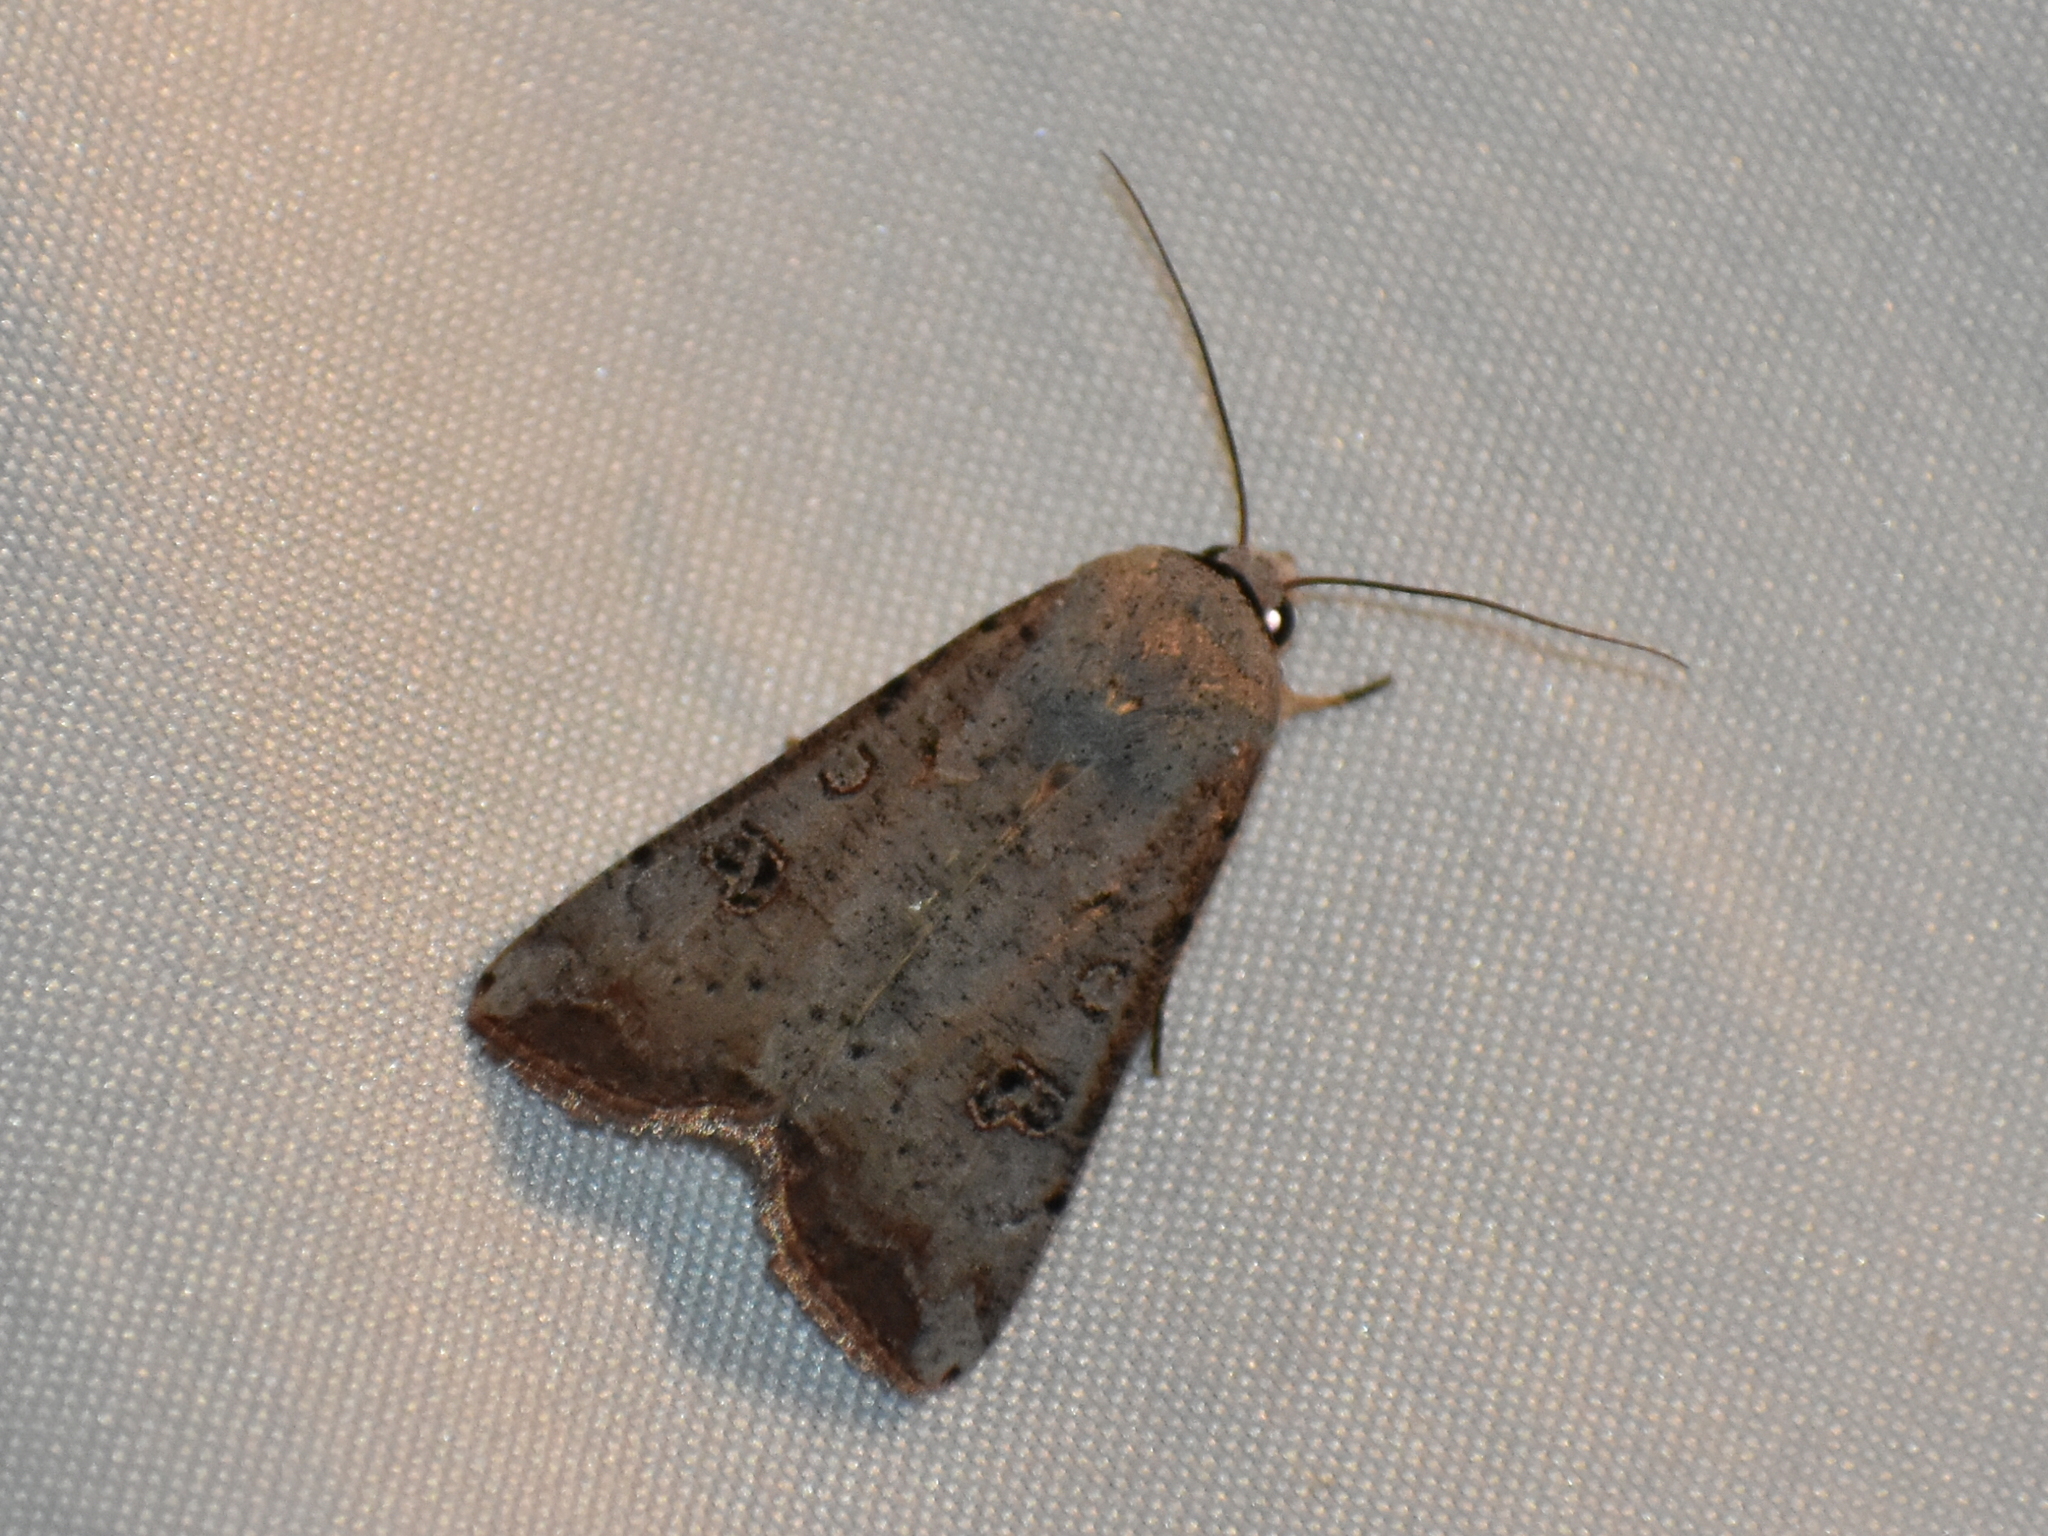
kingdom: Animalia
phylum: Arthropoda
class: Insecta
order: Lepidoptera
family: Noctuidae
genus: Anicla
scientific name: Anicla infecta
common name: Green cutworm
